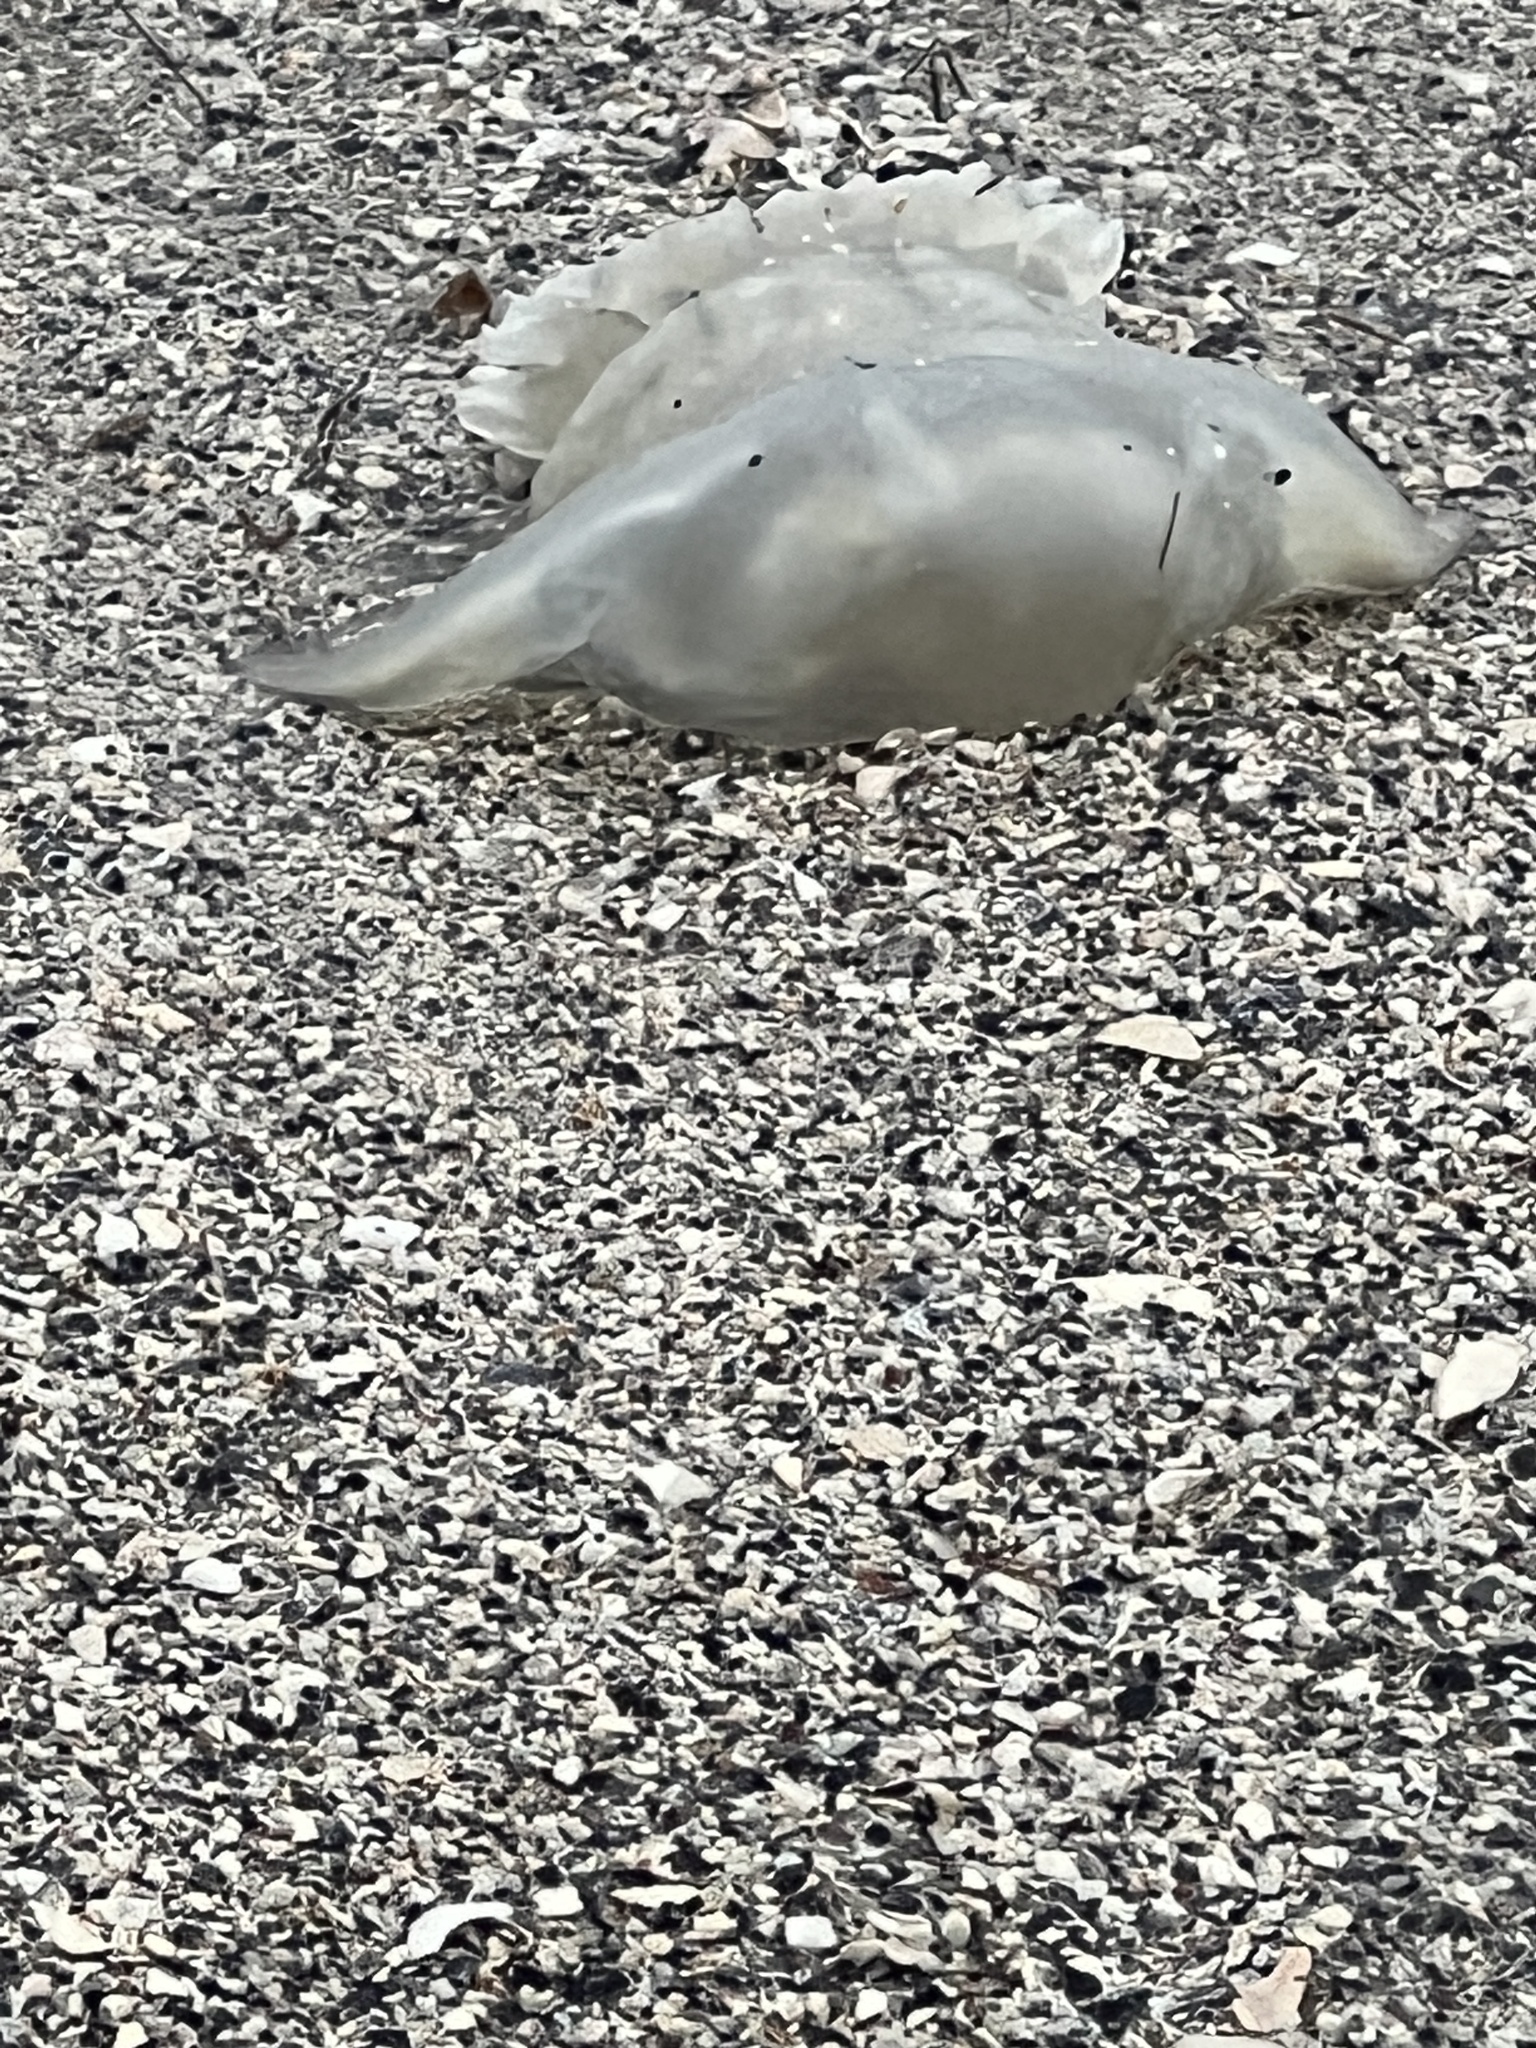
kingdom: Animalia
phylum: Cnidaria
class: Scyphozoa
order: Rhizostomeae
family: Stomolophidae
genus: Stomolophus
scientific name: Stomolophus meleagris
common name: Cabbagehead
